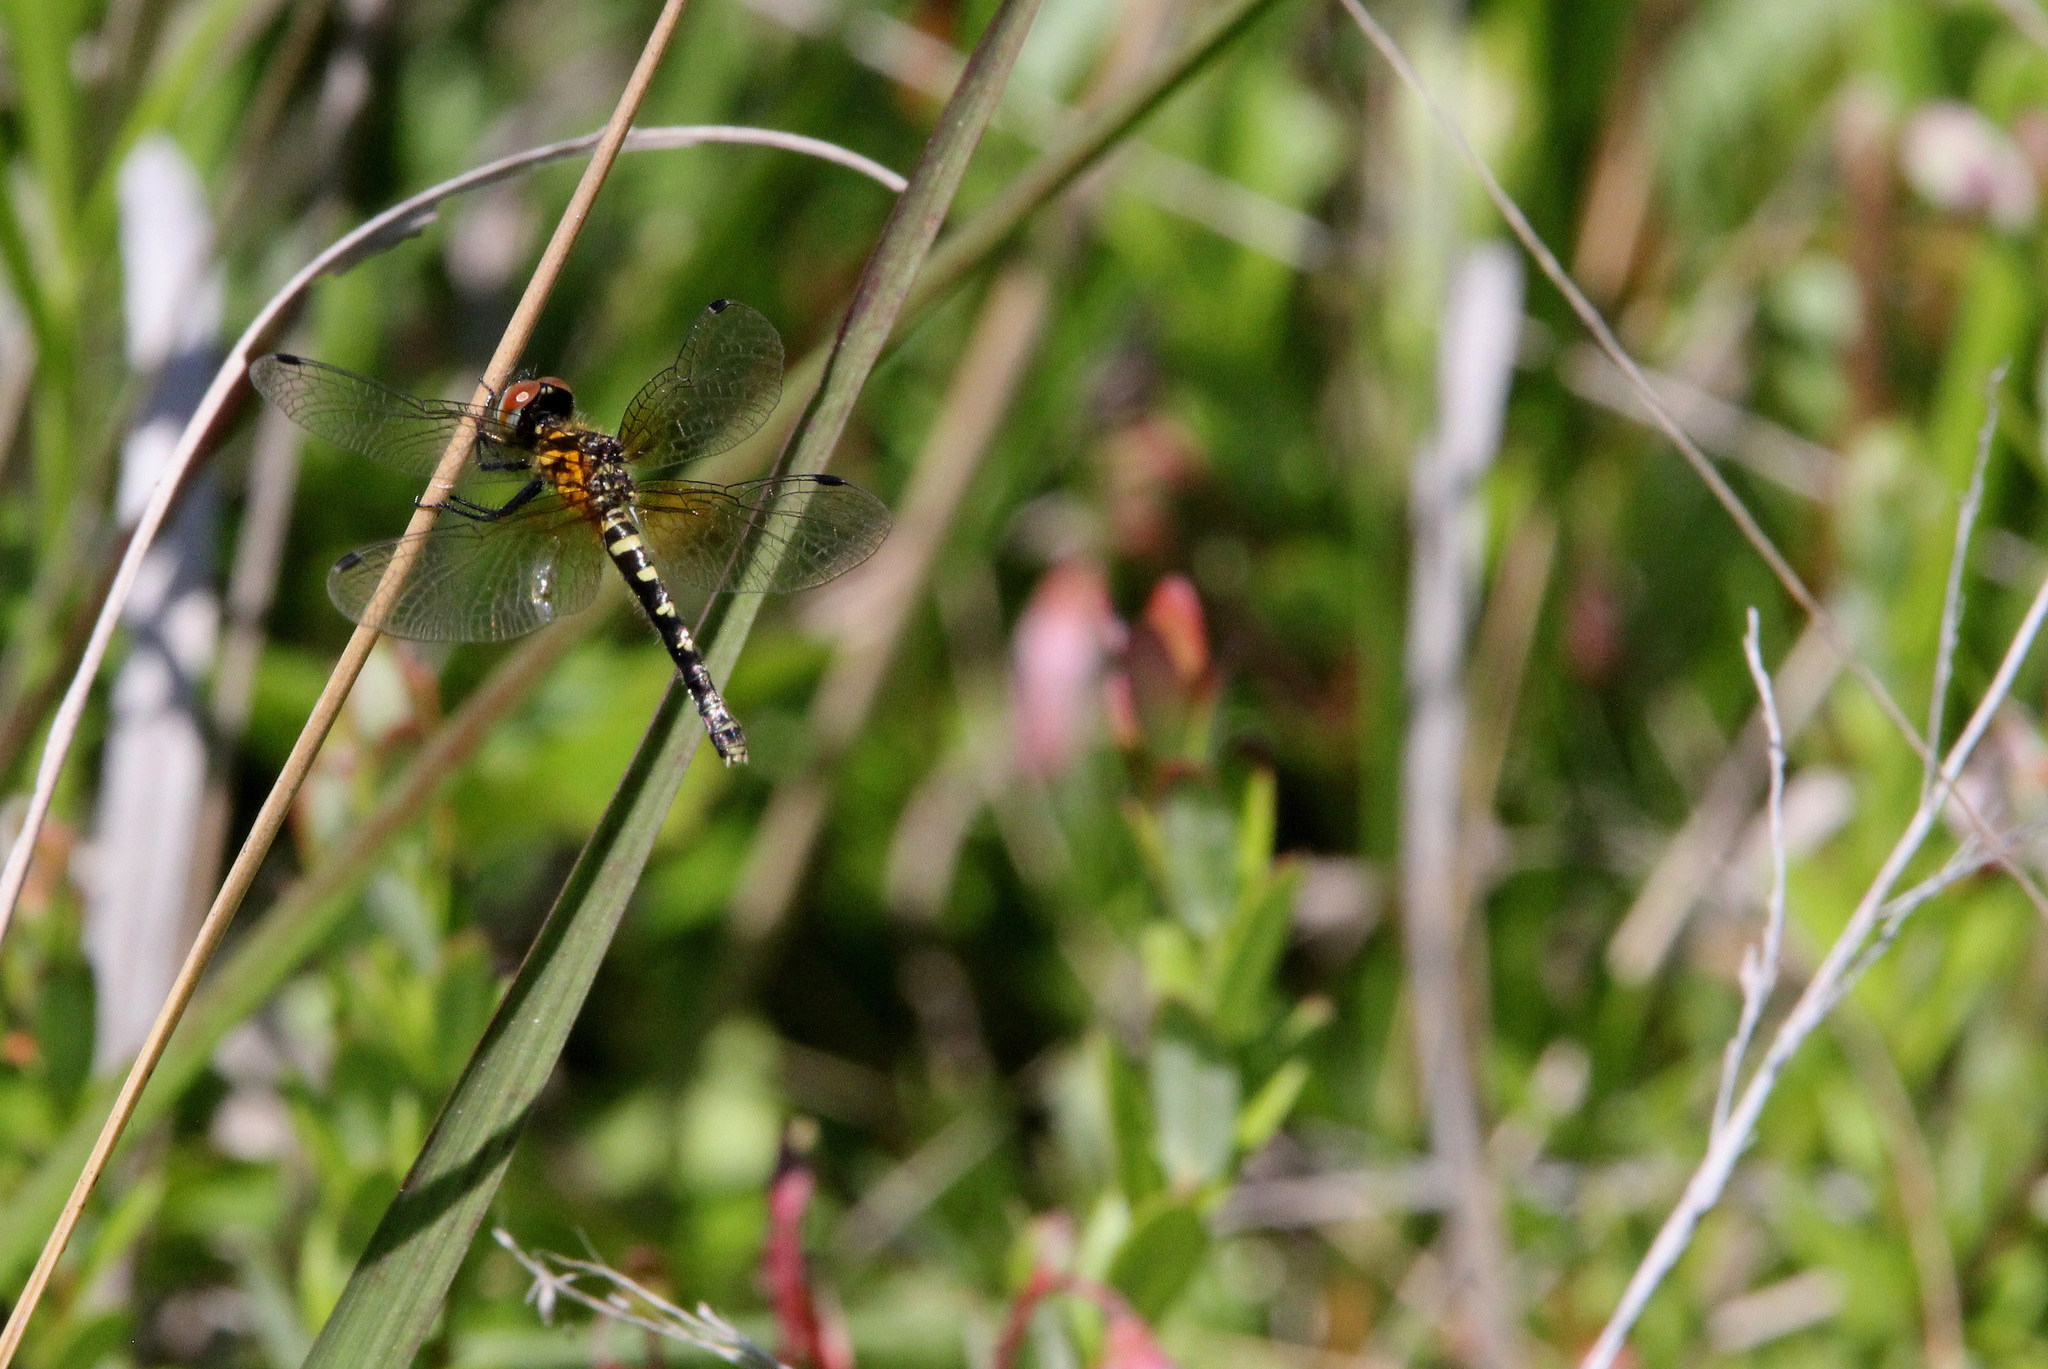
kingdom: Animalia
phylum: Arthropoda
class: Insecta
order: Odonata
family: Libellulidae
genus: Nannothemis
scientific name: Nannothemis bella
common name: Elfin skimmer
